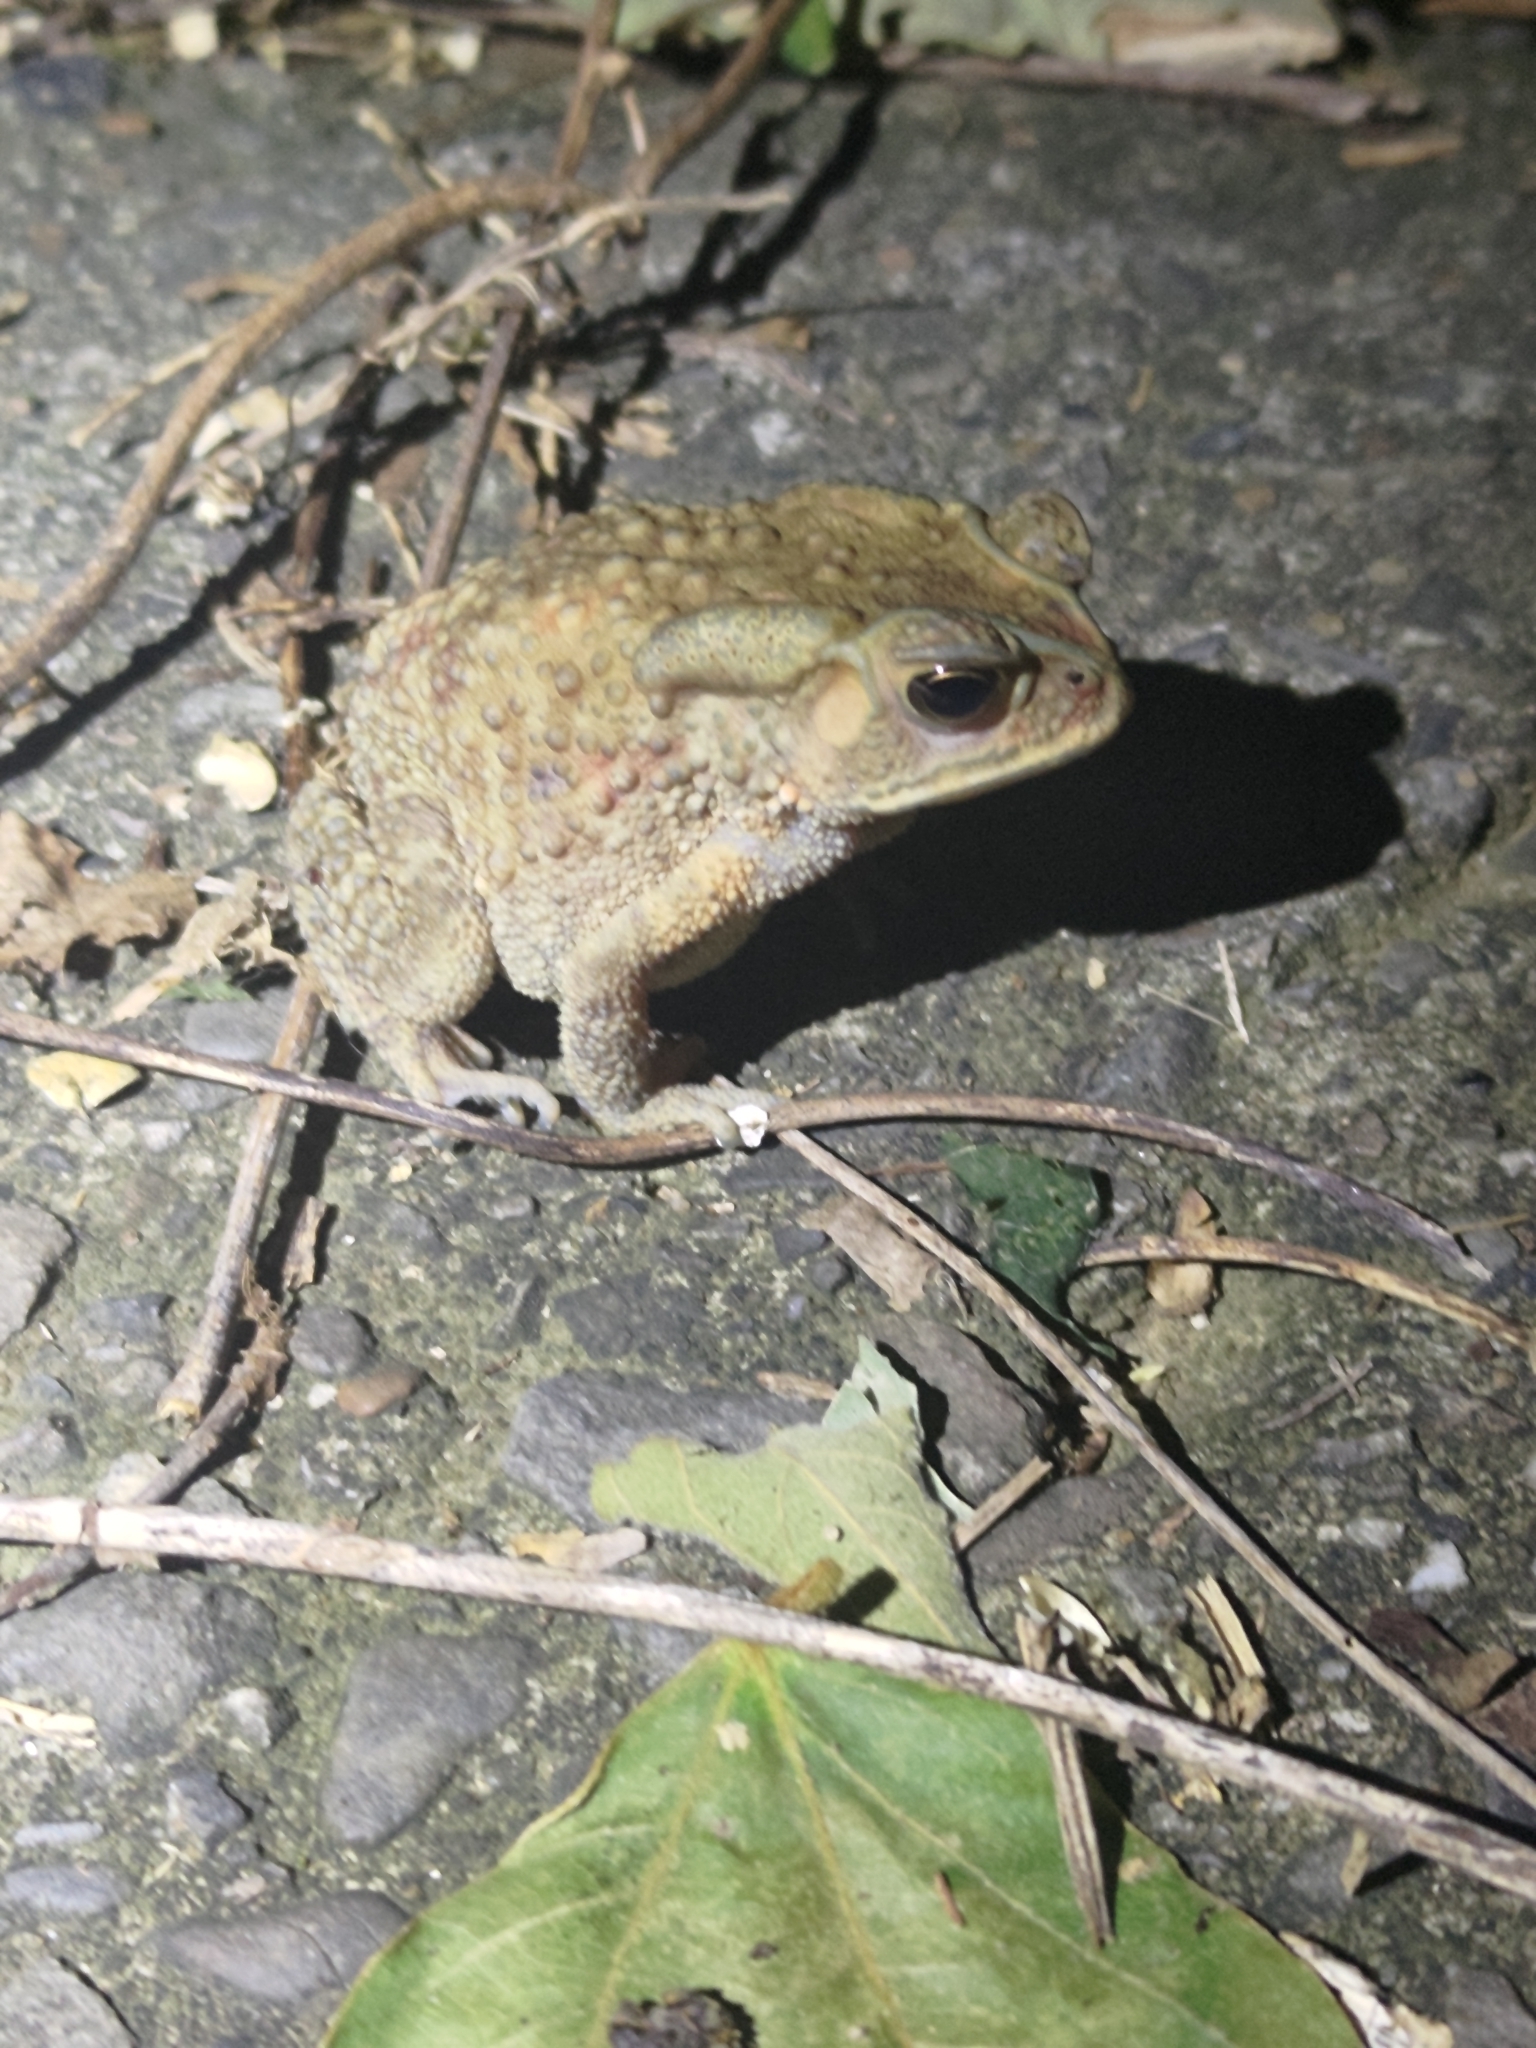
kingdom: Animalia
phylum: Chordata
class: Amphibia
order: Anura
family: Bufonidae
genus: Duttaphrynus
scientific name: Duttaphrynus melanostictus
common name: Common sunda toad
